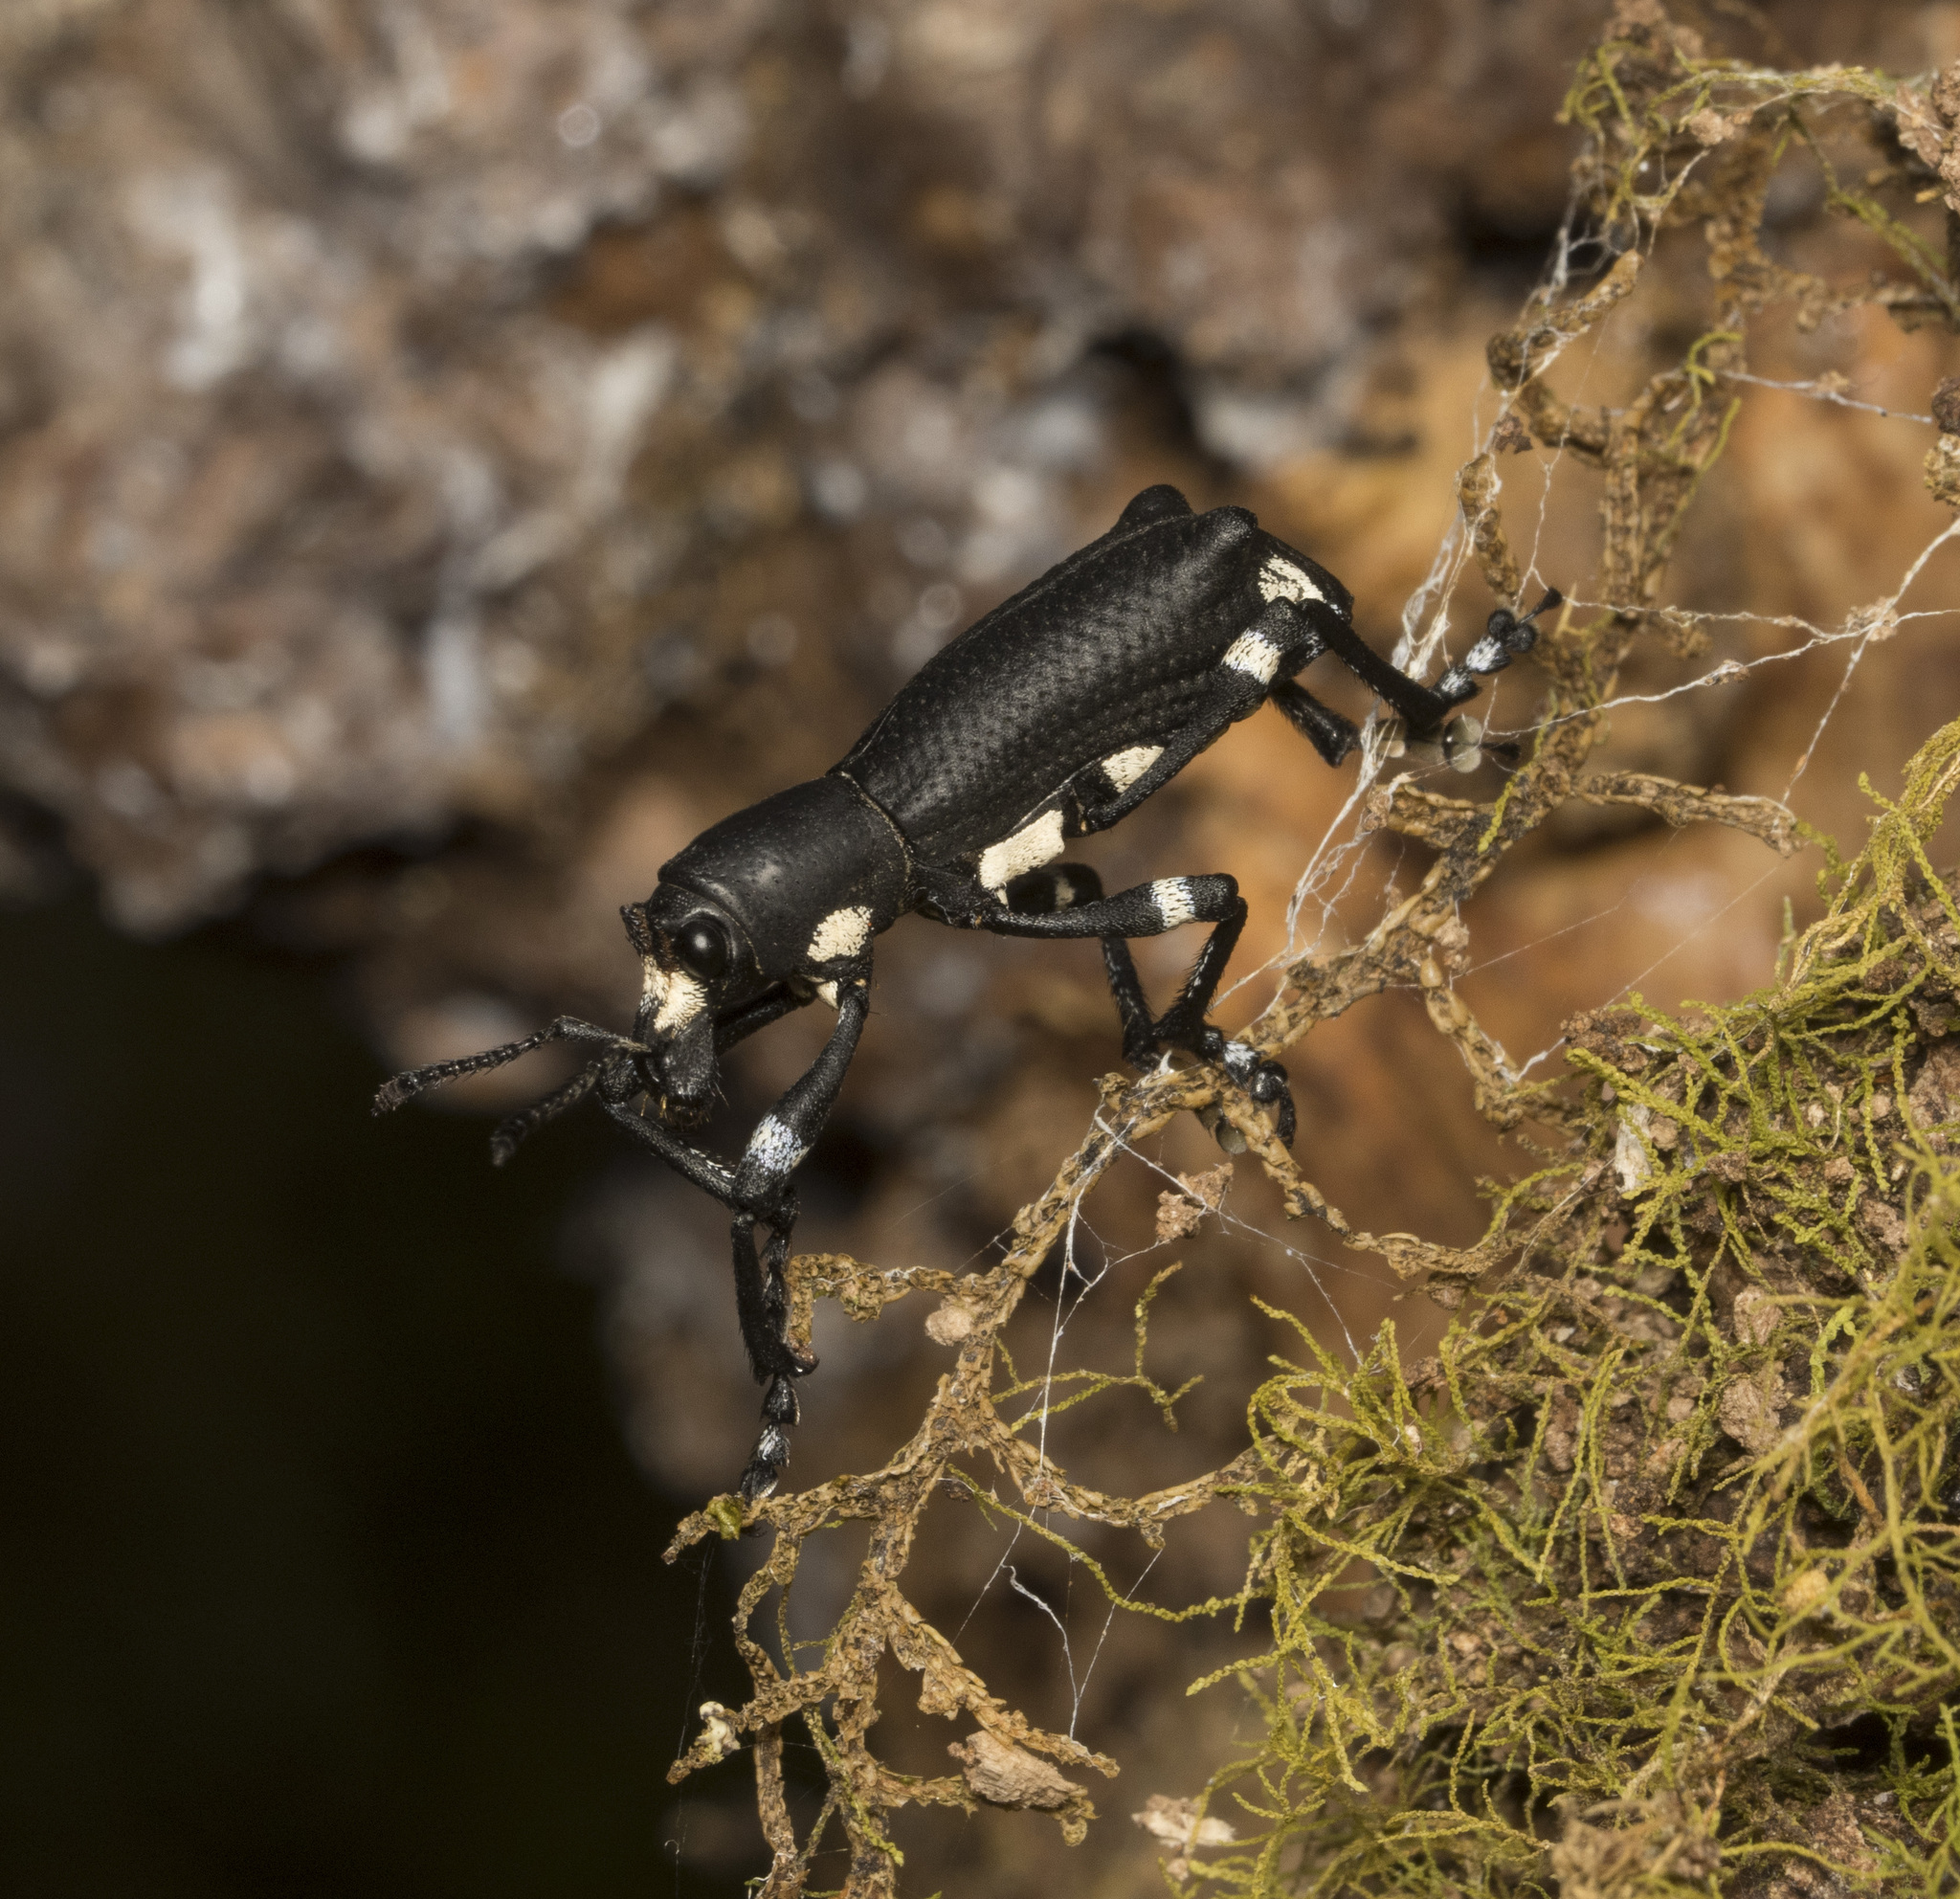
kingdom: Animalia
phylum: Arthropoda
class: Insecta
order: Coleoptera
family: Curculionidae
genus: Aegorhinus
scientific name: Aegorhinus
